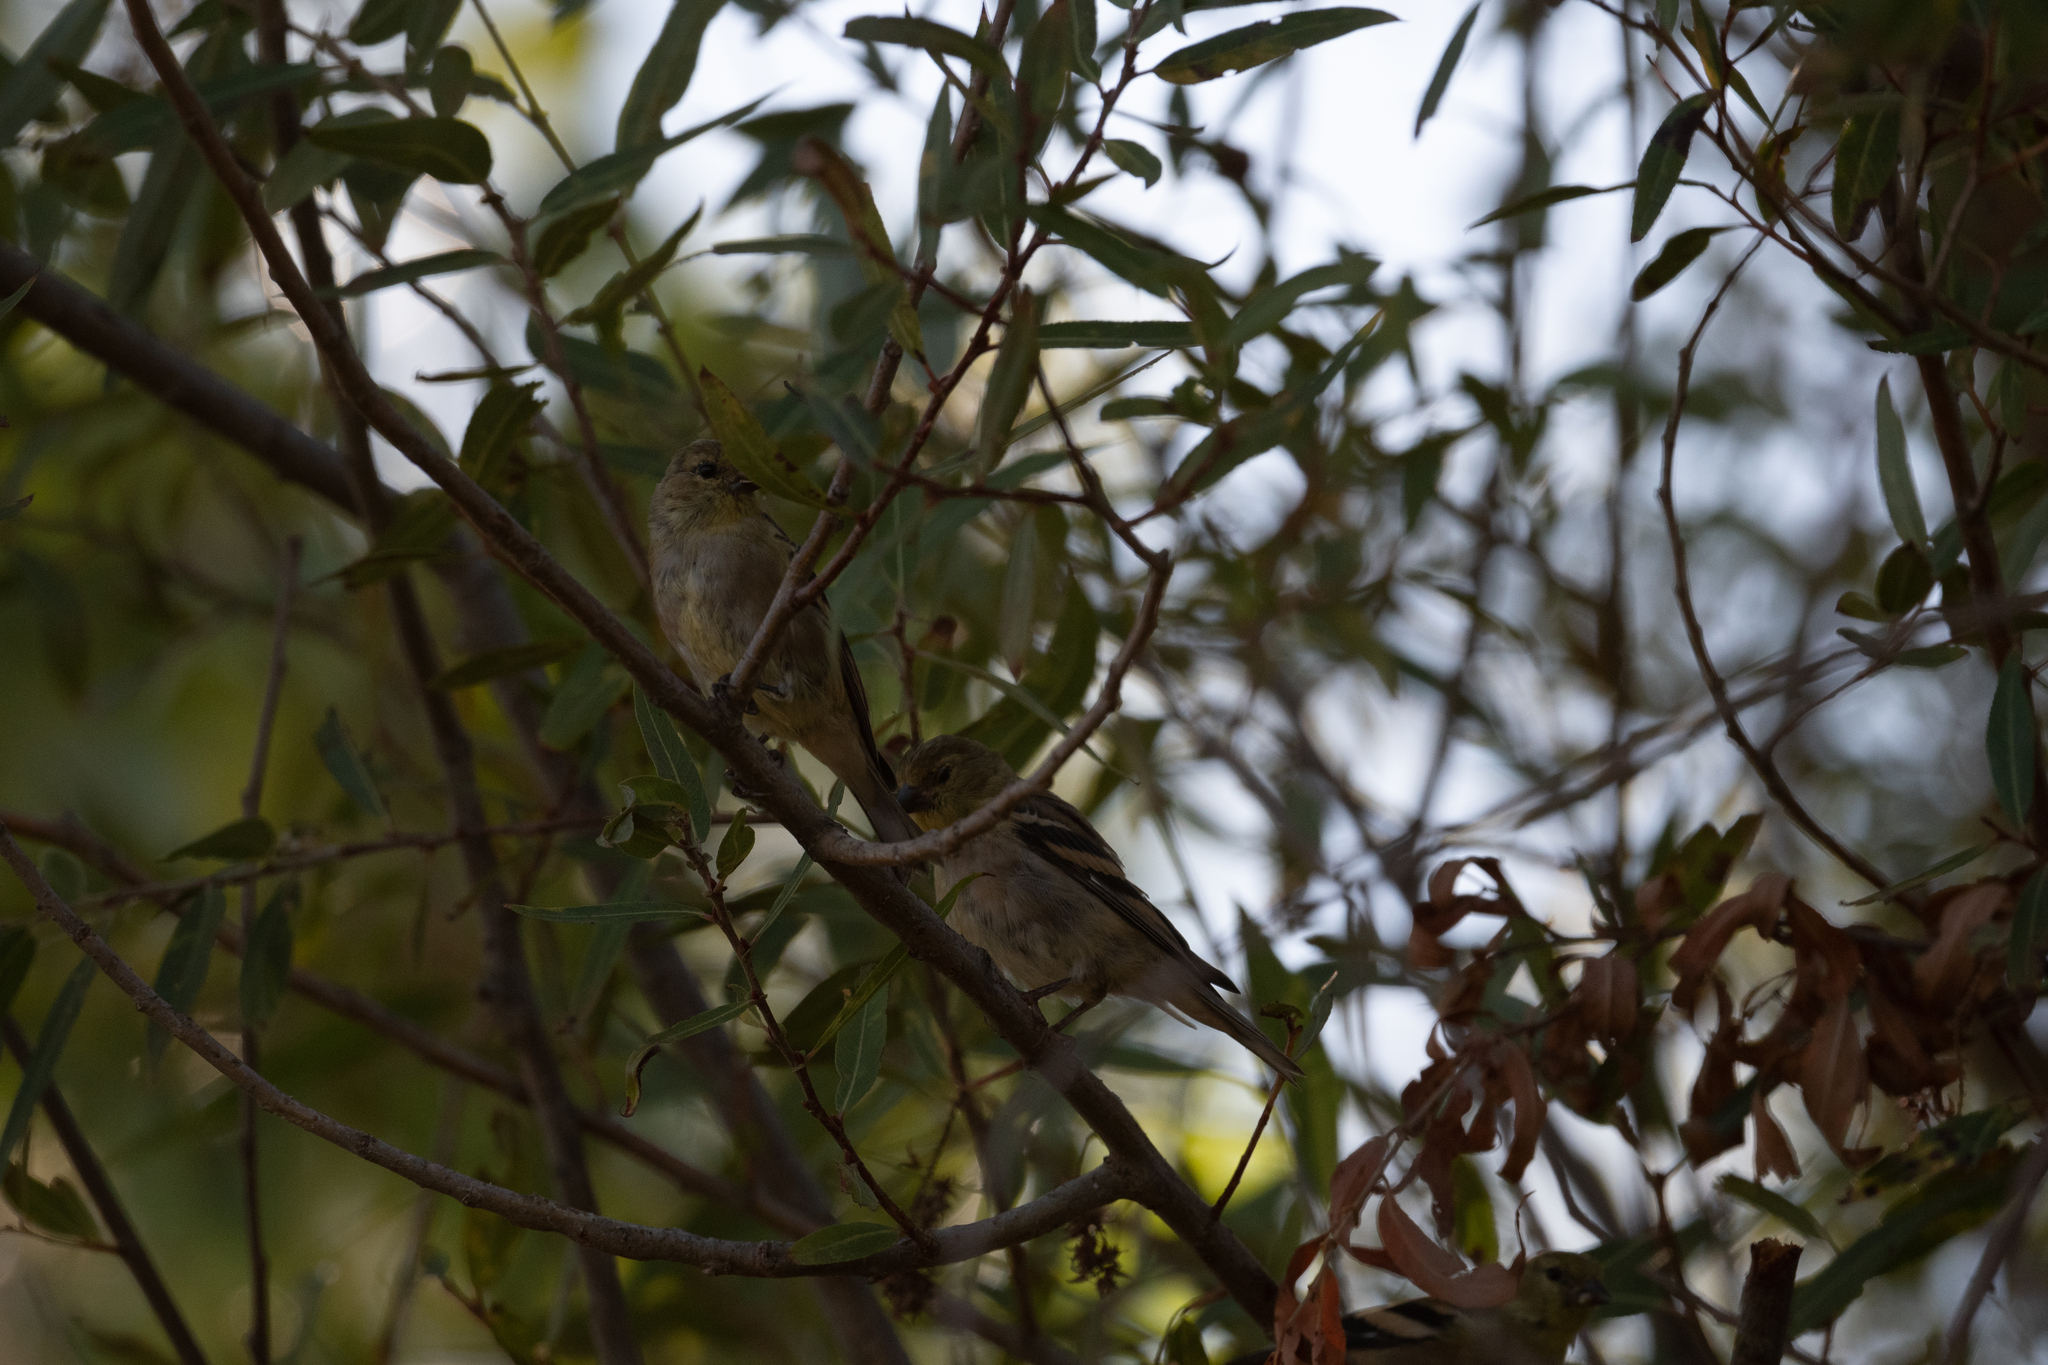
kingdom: Animalia
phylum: Chordata
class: Aves
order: Passeriformes
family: Fringillidae
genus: Spinus
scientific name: Spinus tristis
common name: American goldfinch
